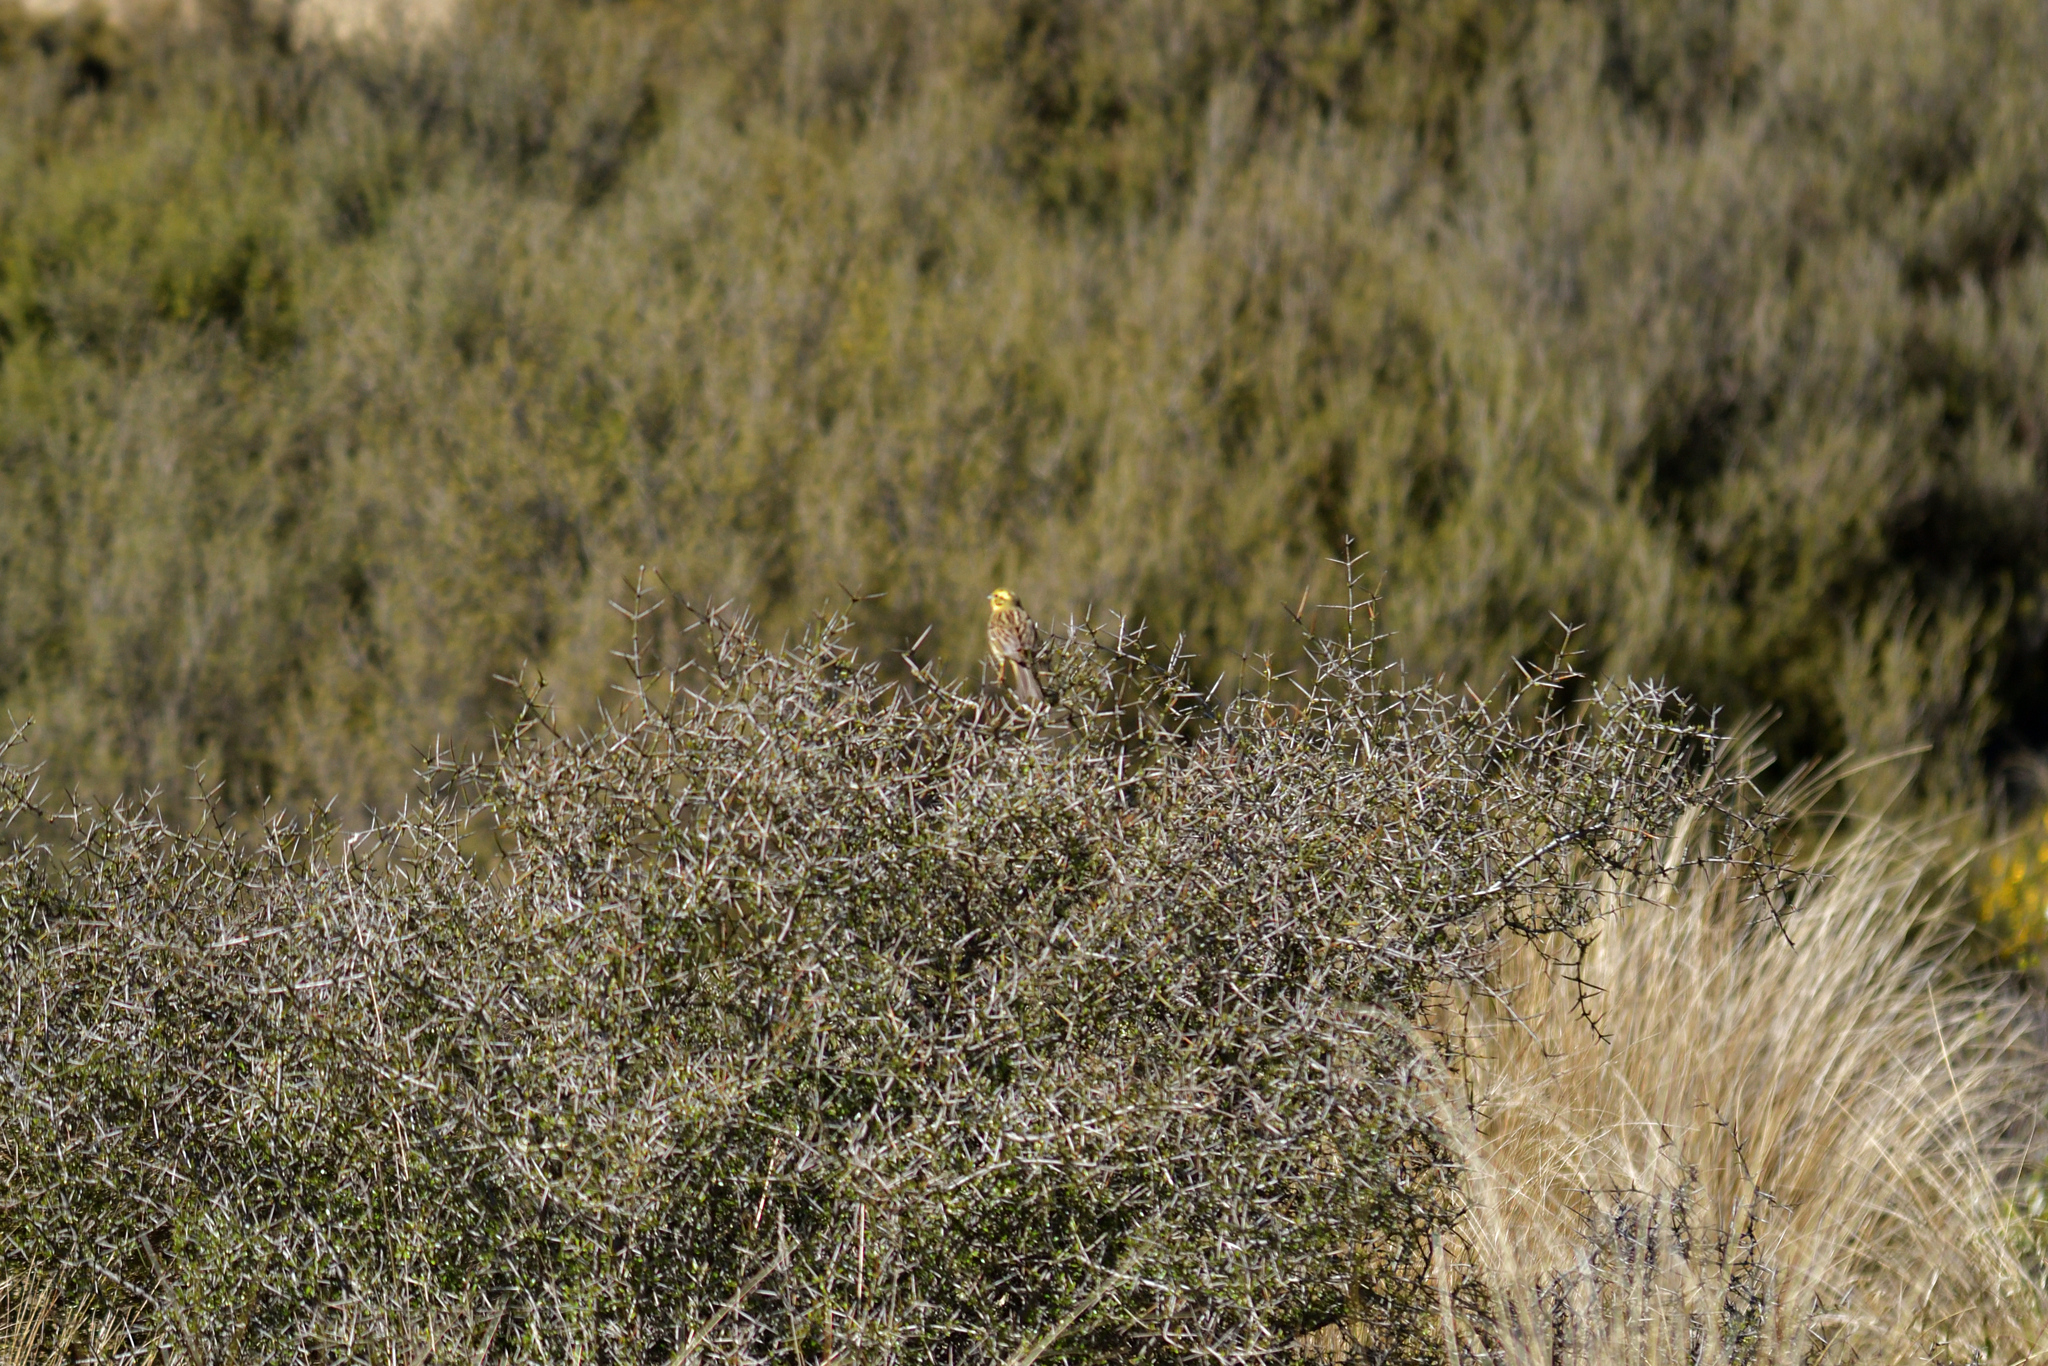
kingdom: Animalia
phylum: Chordata
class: Aves
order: Passeriformes
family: Emberizidae
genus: Emberiza
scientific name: Emberiza citrinella
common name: Yellowhammer
